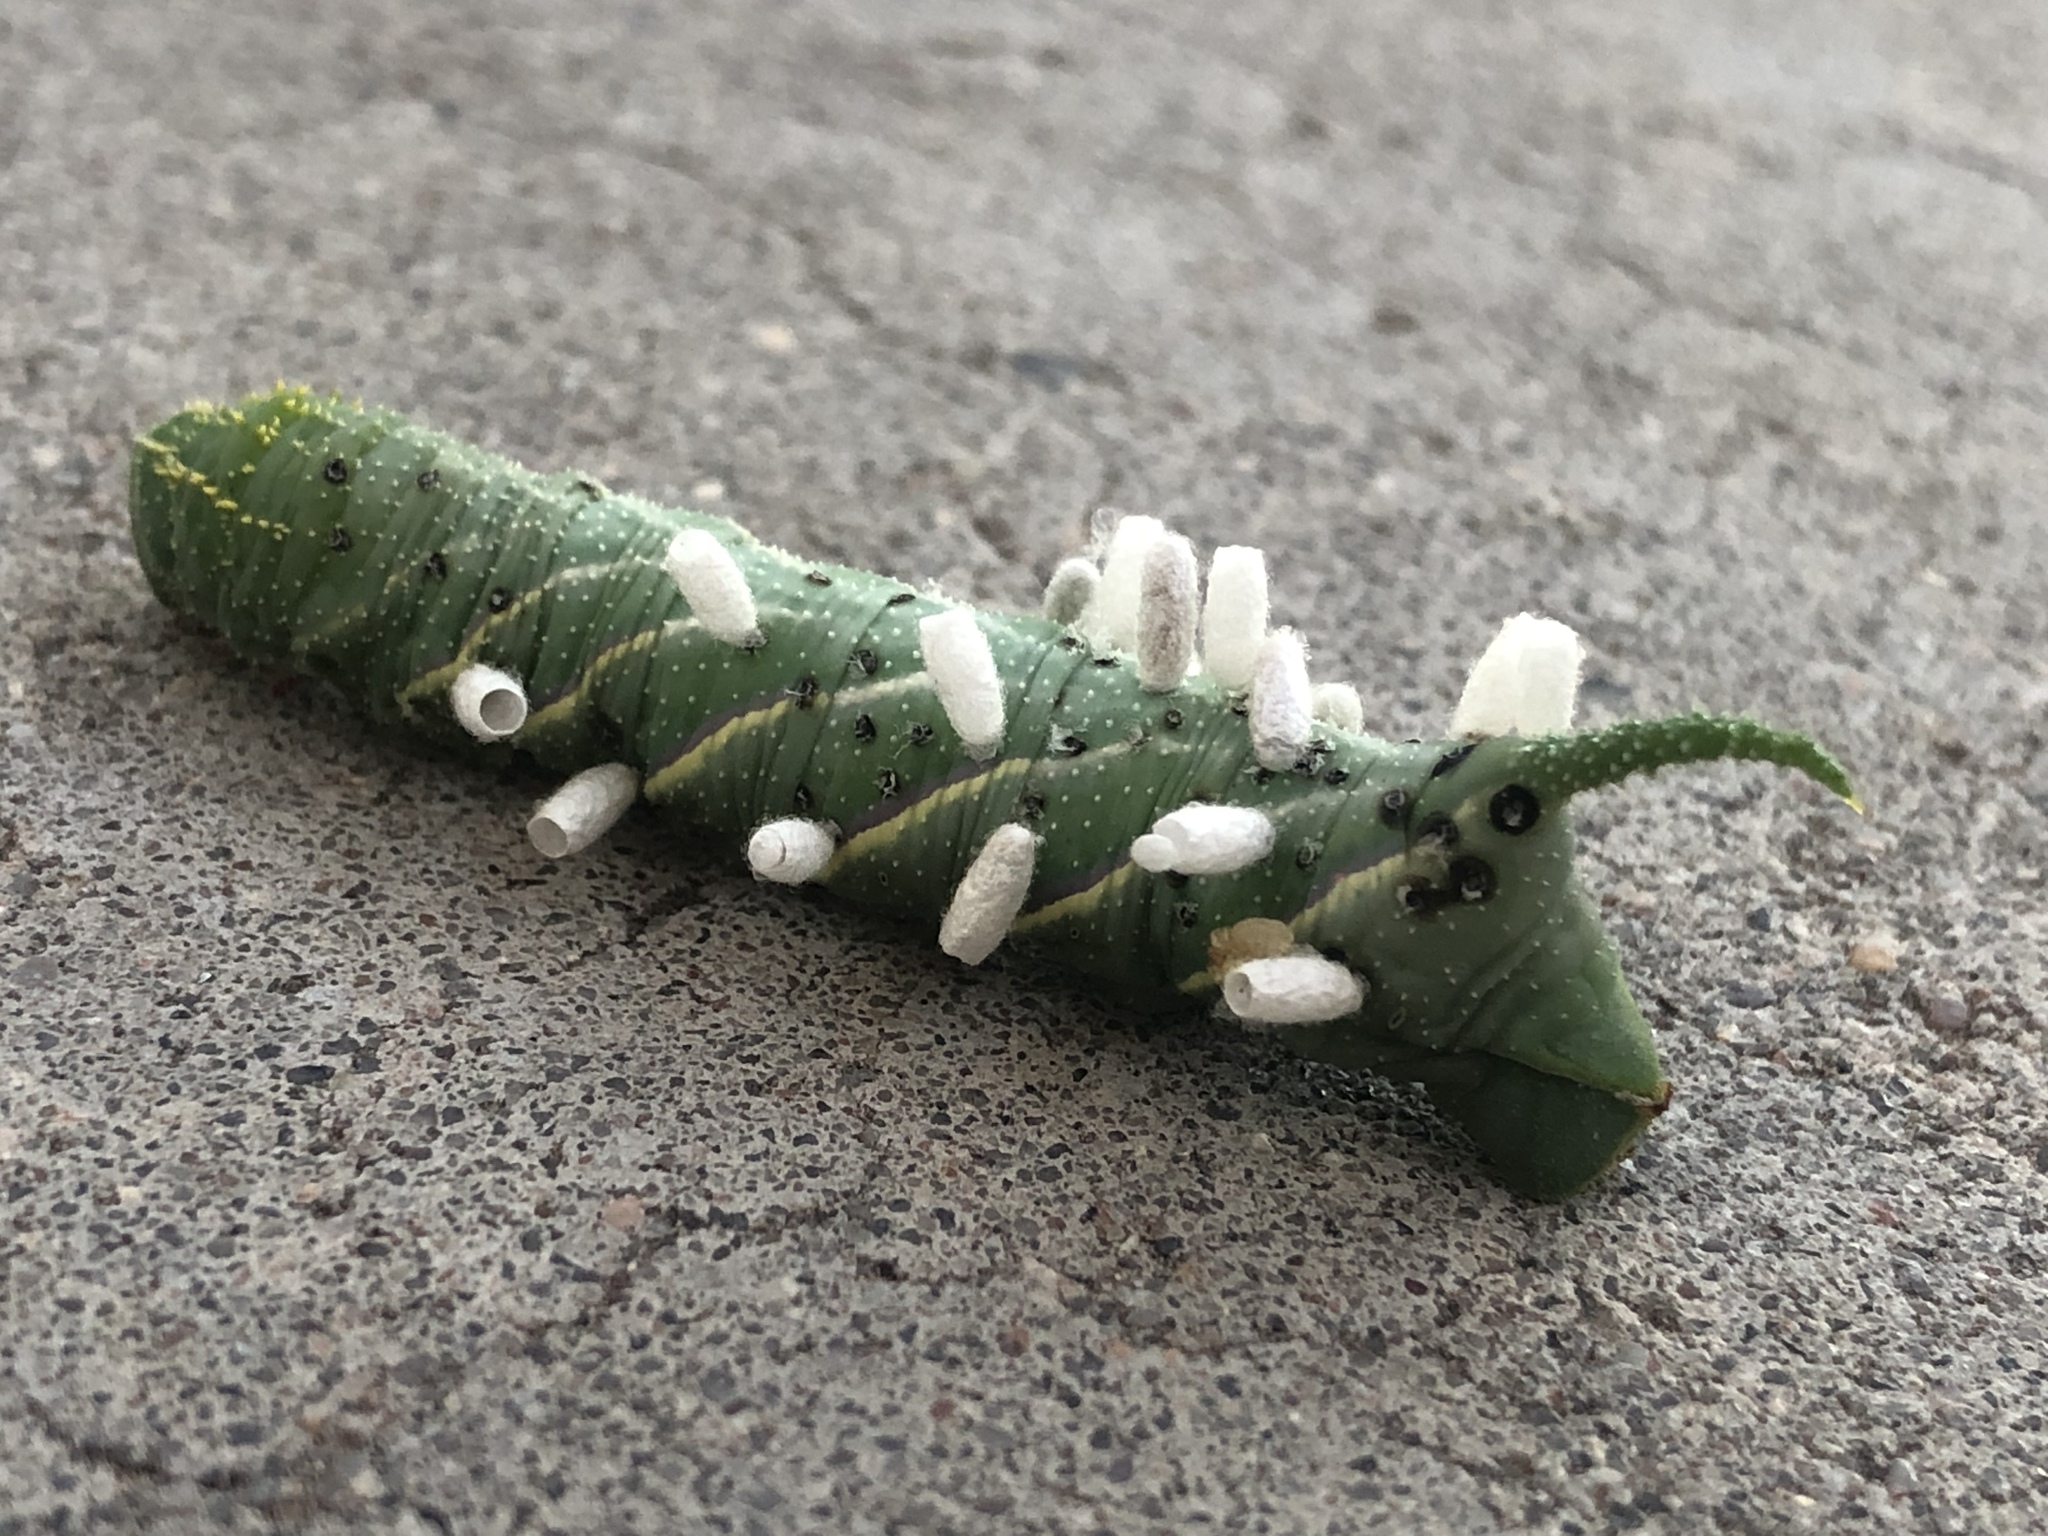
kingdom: Animalia
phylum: Arthropoda
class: Insecta
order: Hymenoptera
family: Braconidae
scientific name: Braconidae
